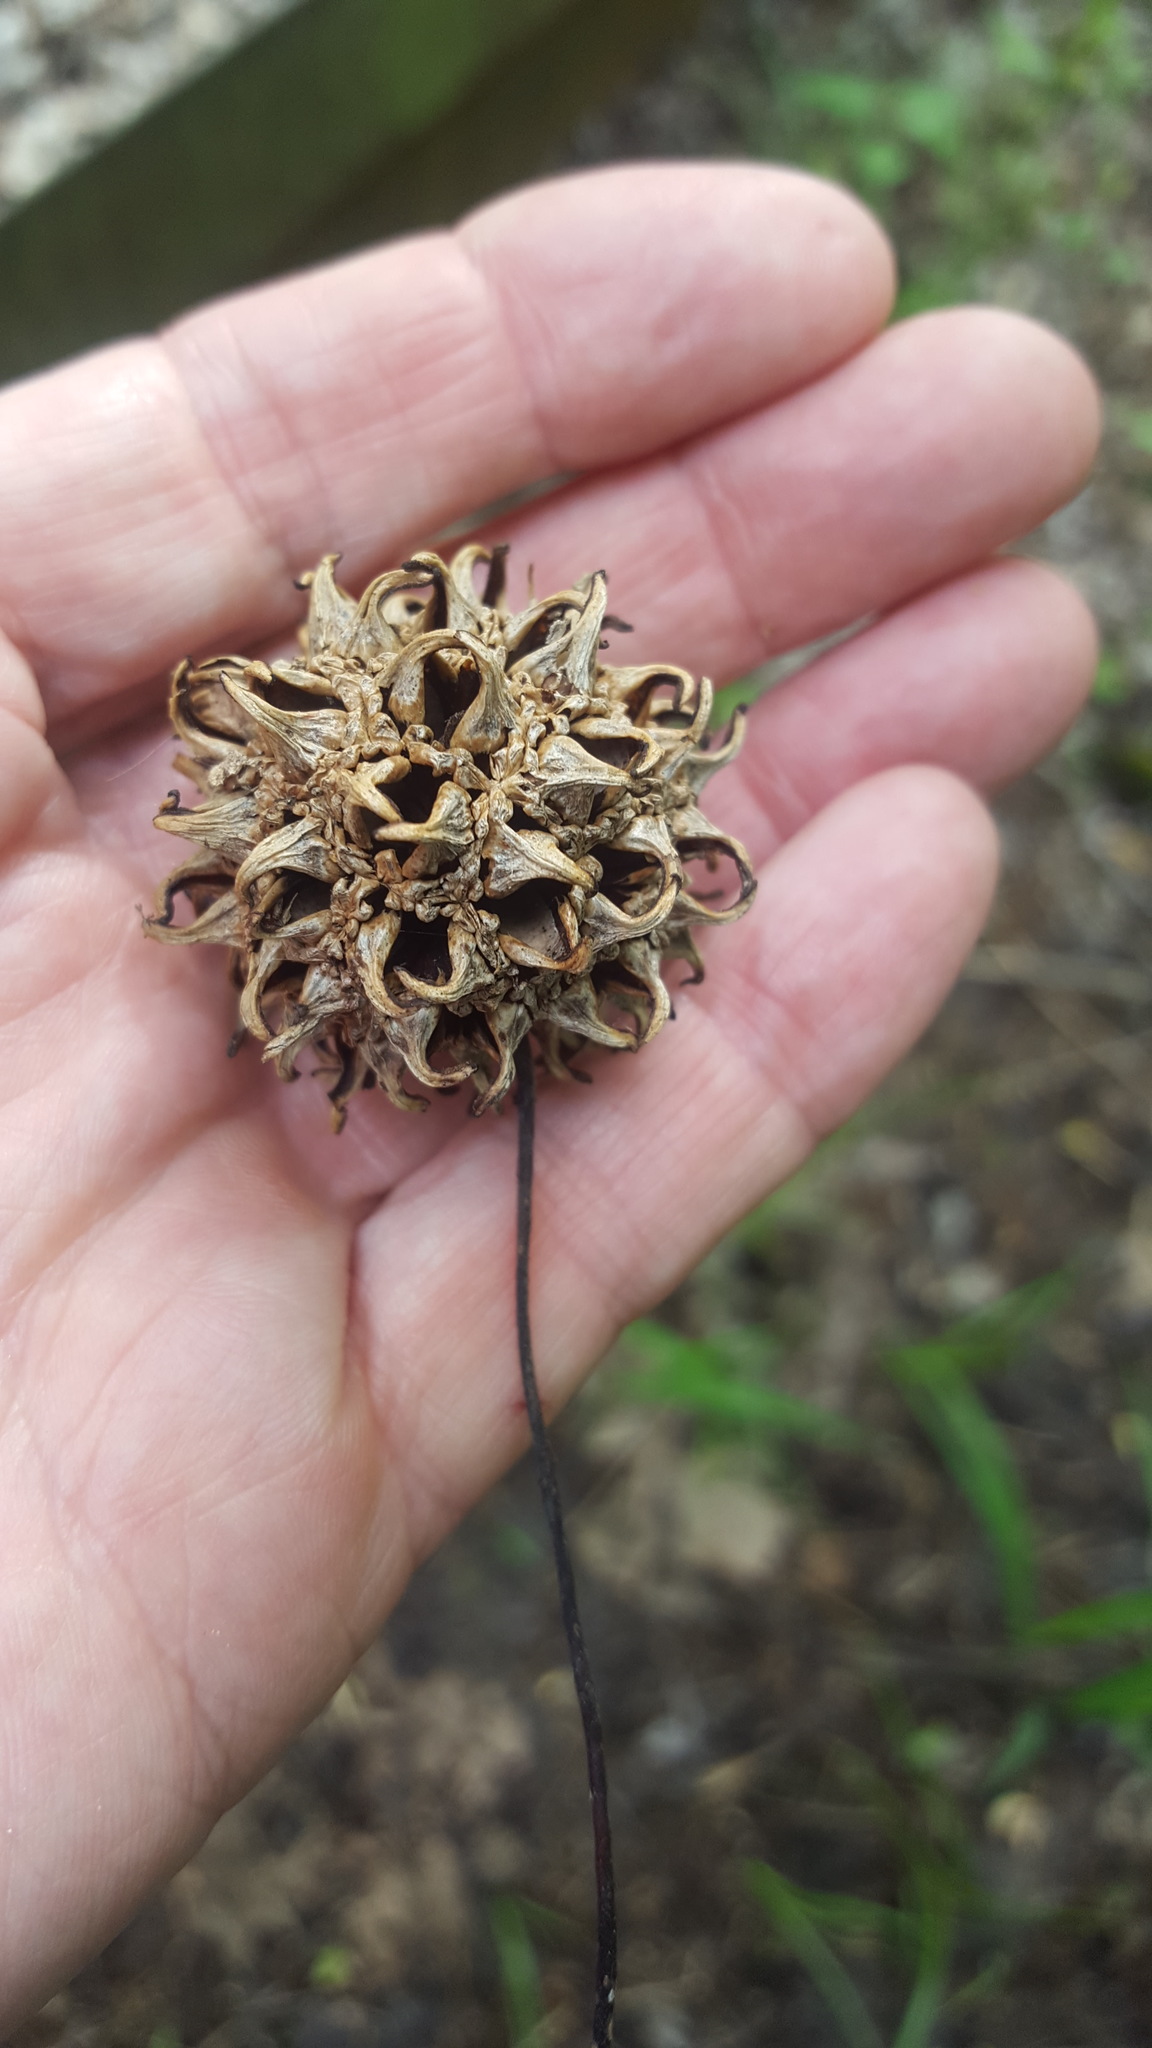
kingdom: Plantae
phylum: Tracheophyta
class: Magnoliopsida
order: Saxifragales
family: Altingiaceae
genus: Liquidambar
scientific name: Liquidambar styraciflua
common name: Sweet gum
